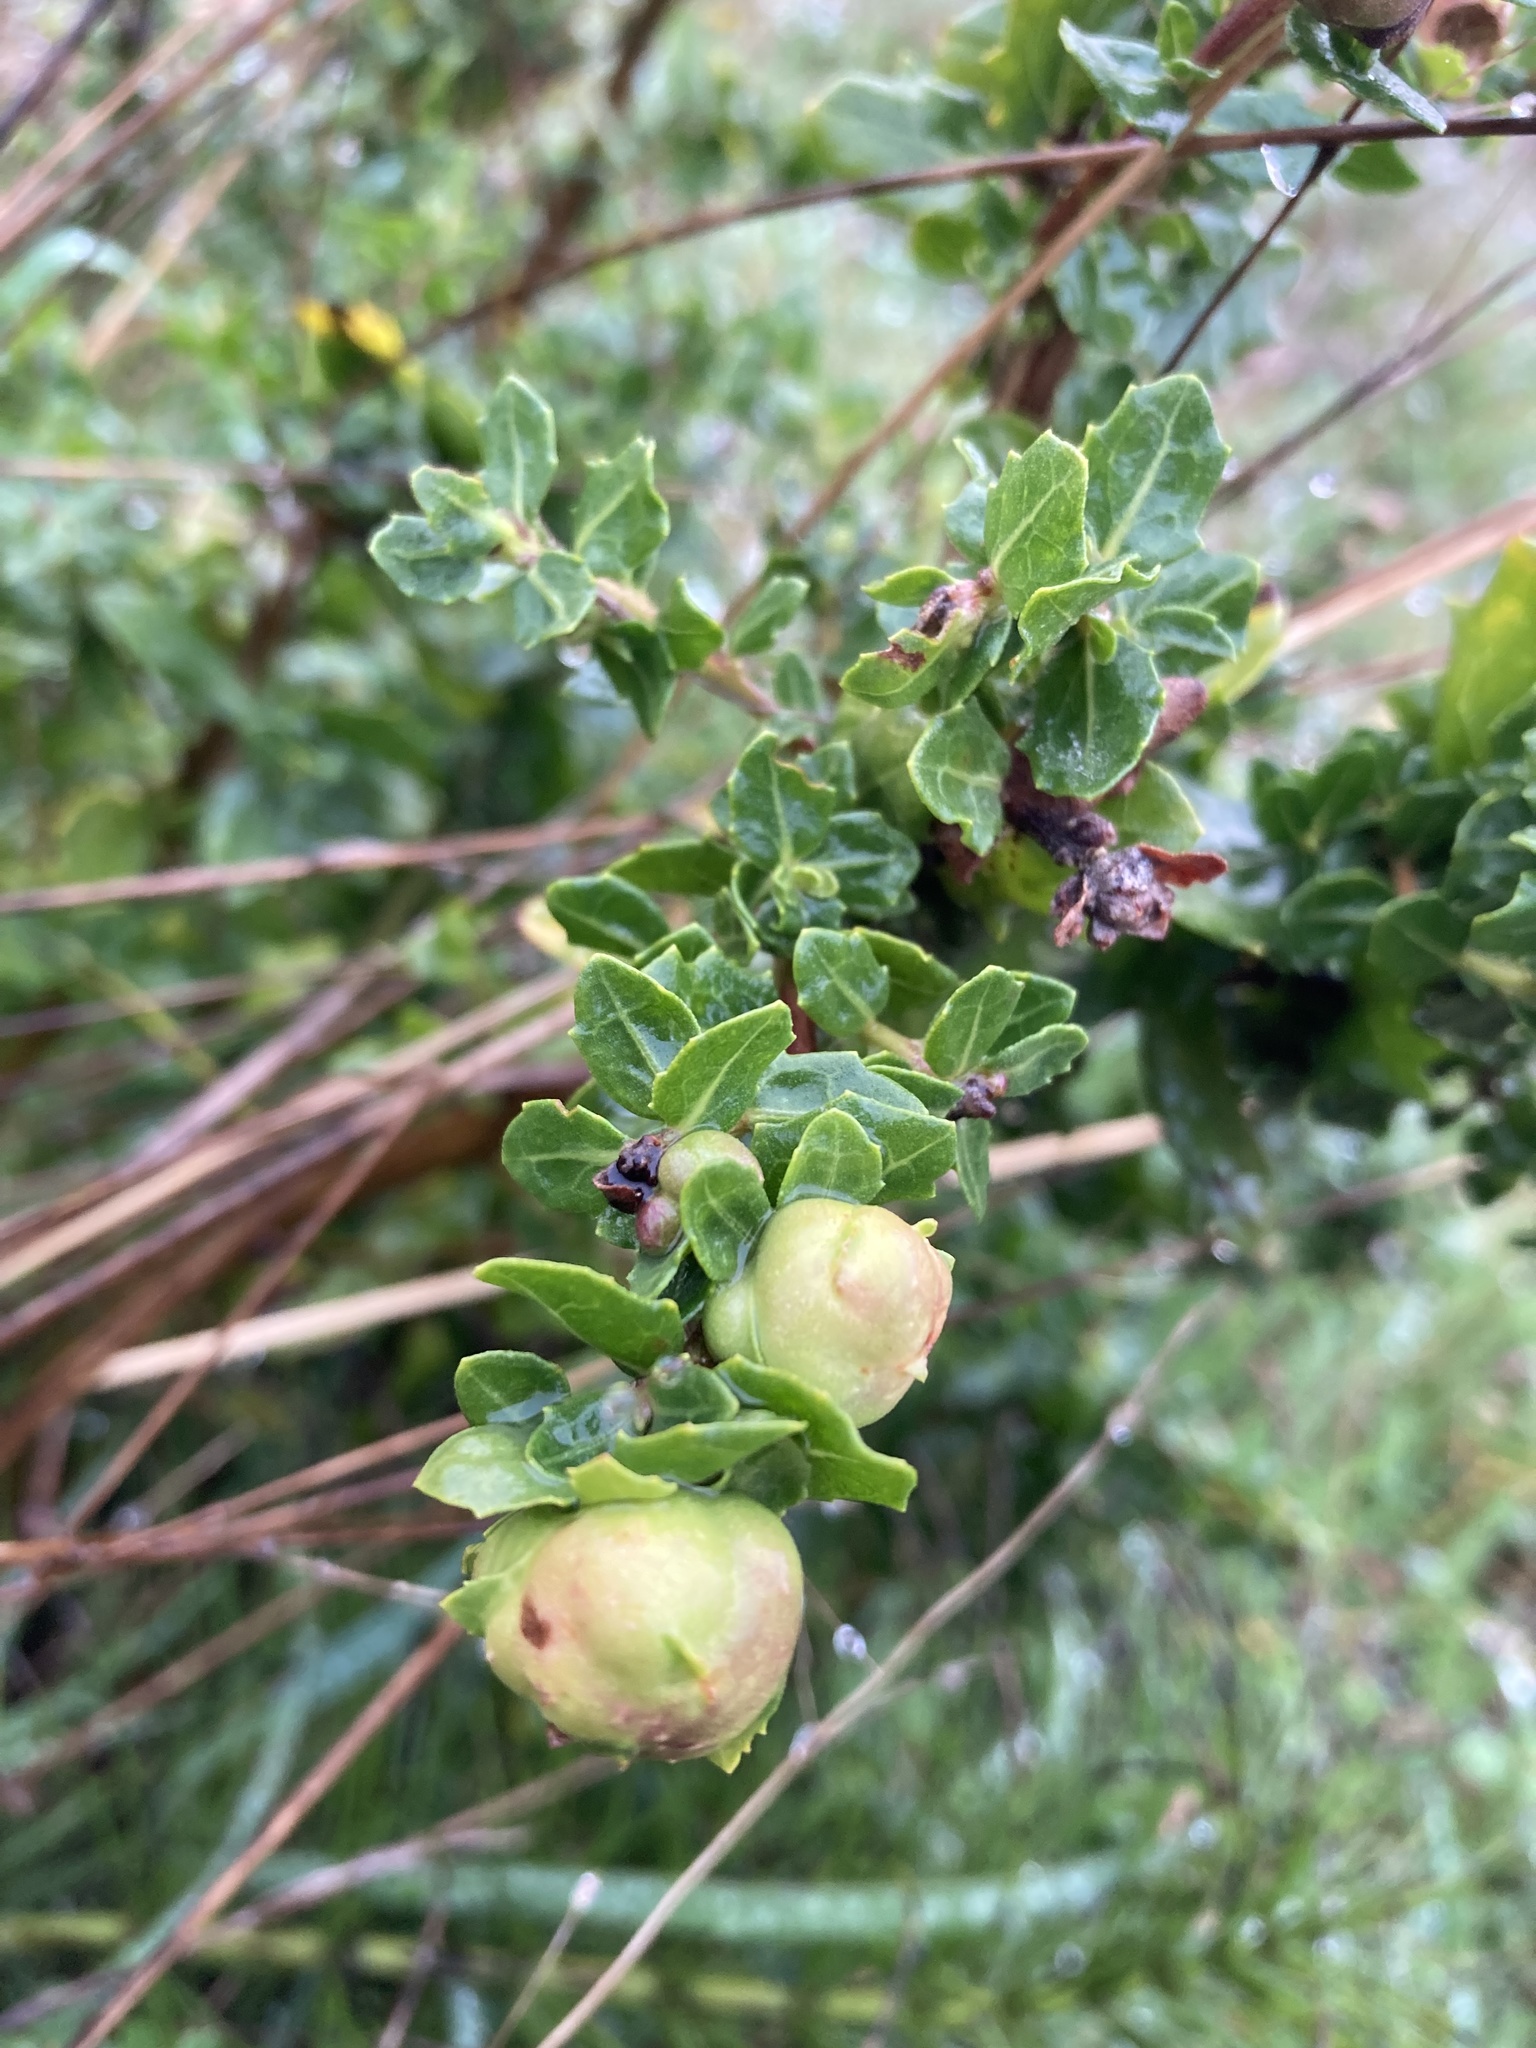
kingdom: Animalia
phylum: Arthropoda
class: Insecta
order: Diptera
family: Cecidomyiidae
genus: Rhopalomyia
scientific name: Rhopalomyia californica
